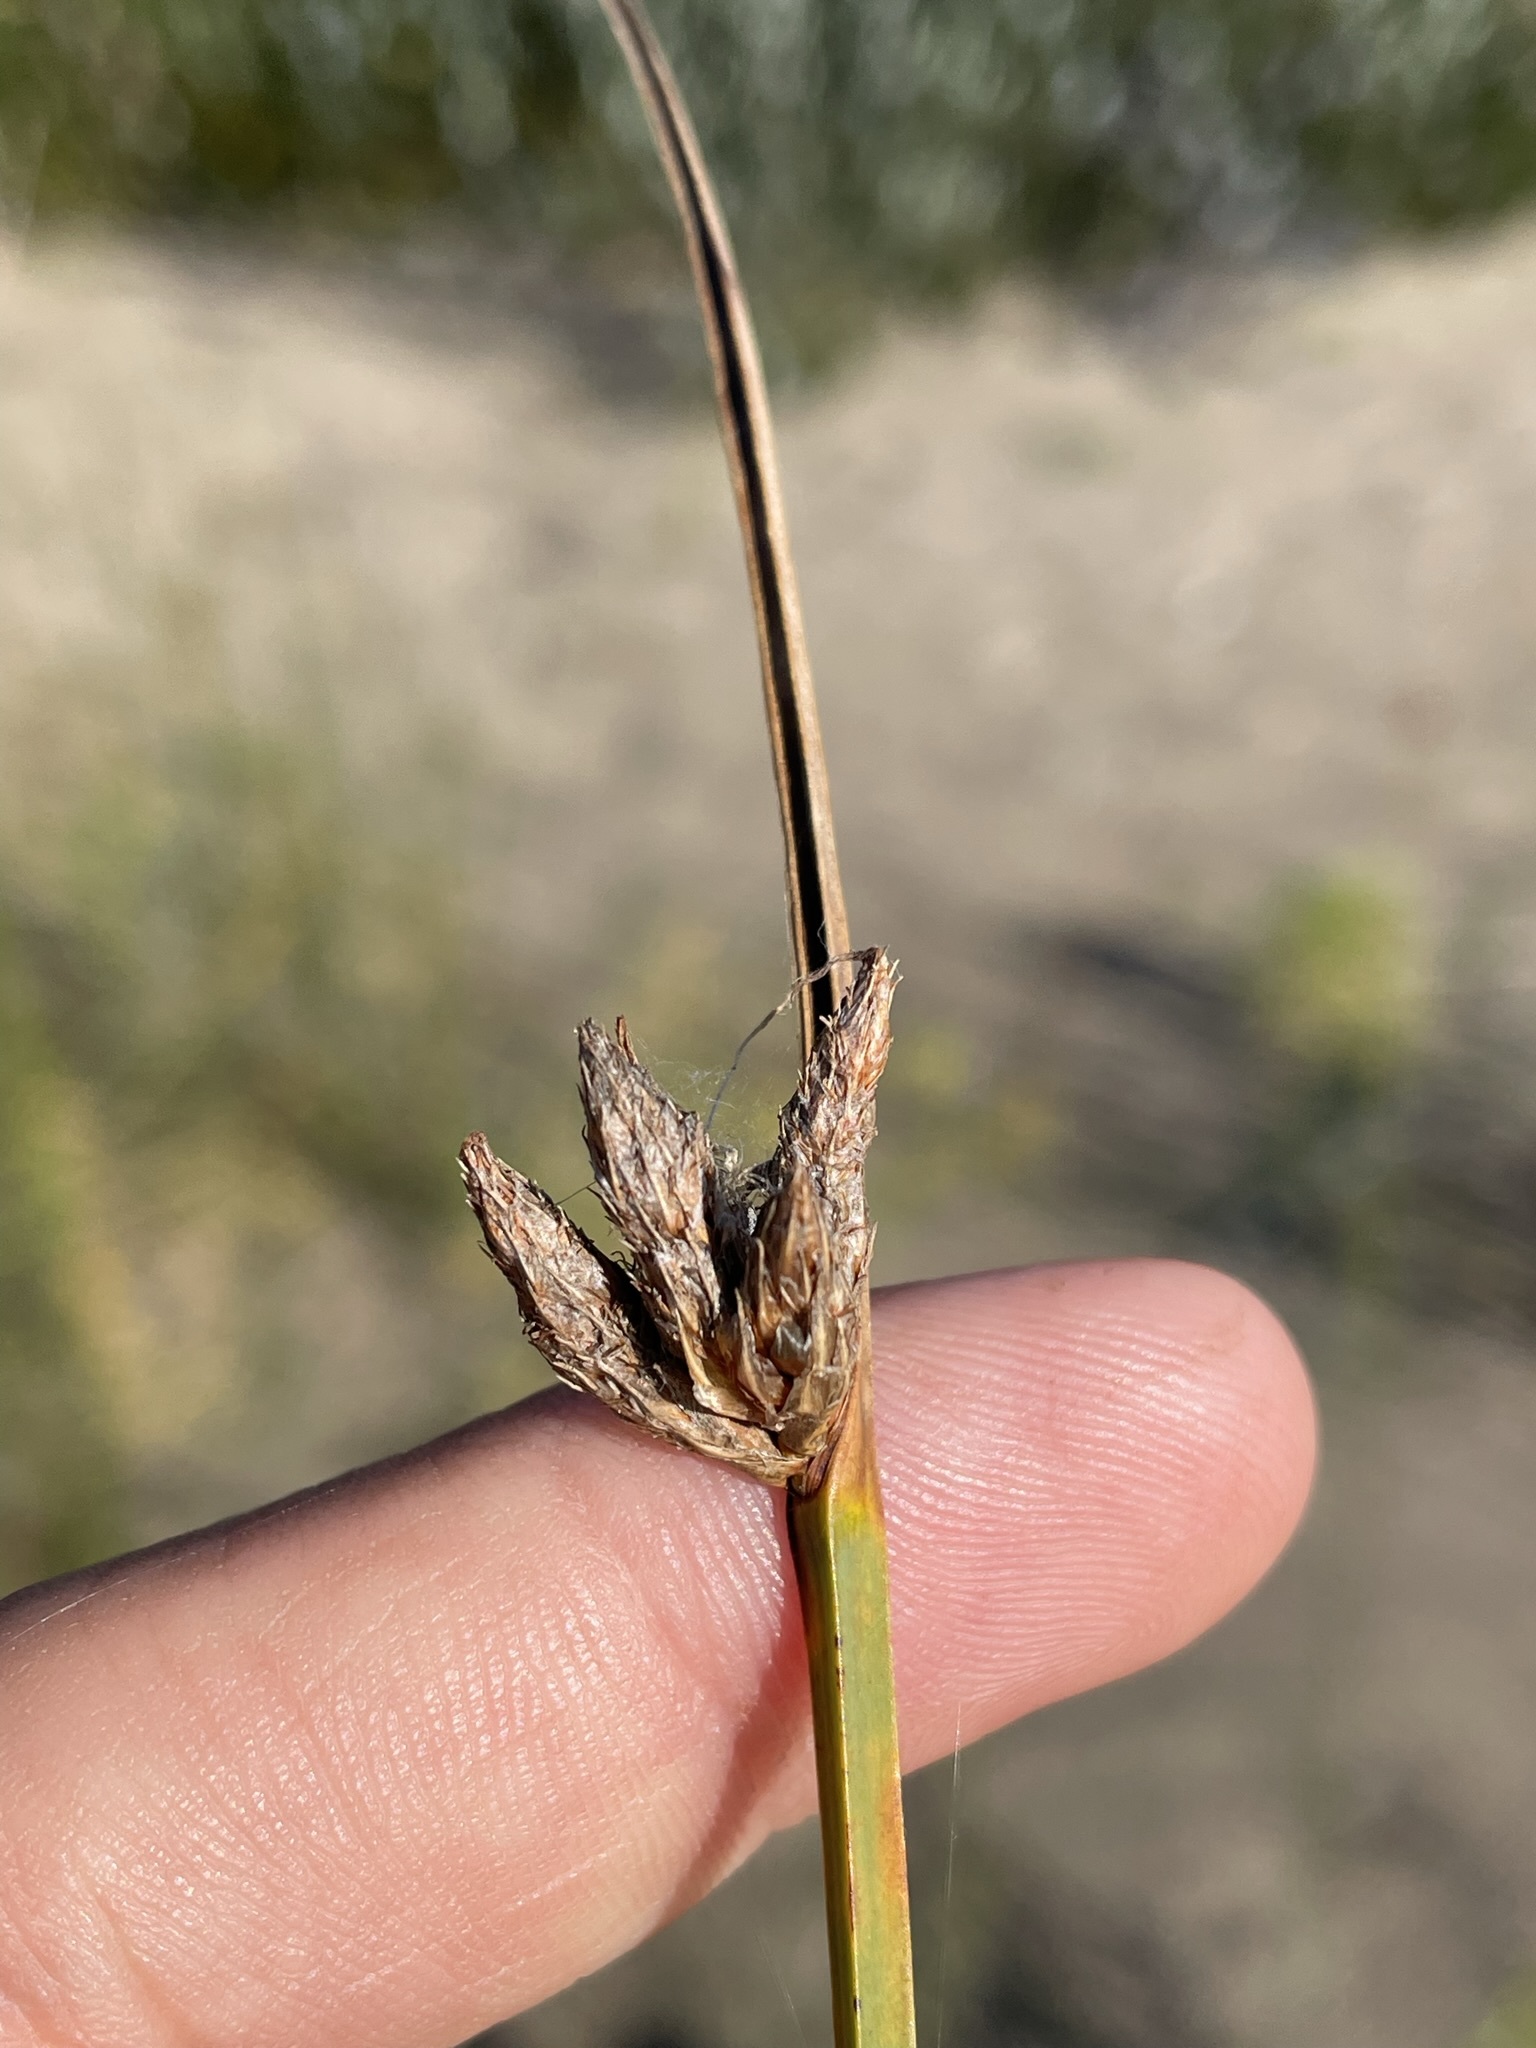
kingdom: Plantae
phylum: Tracheophyta
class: Liliopsida
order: Poales
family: Cyperaceae
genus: Schoenoplectus
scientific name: Schoenoplectus pungens
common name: Sharp club-rush
